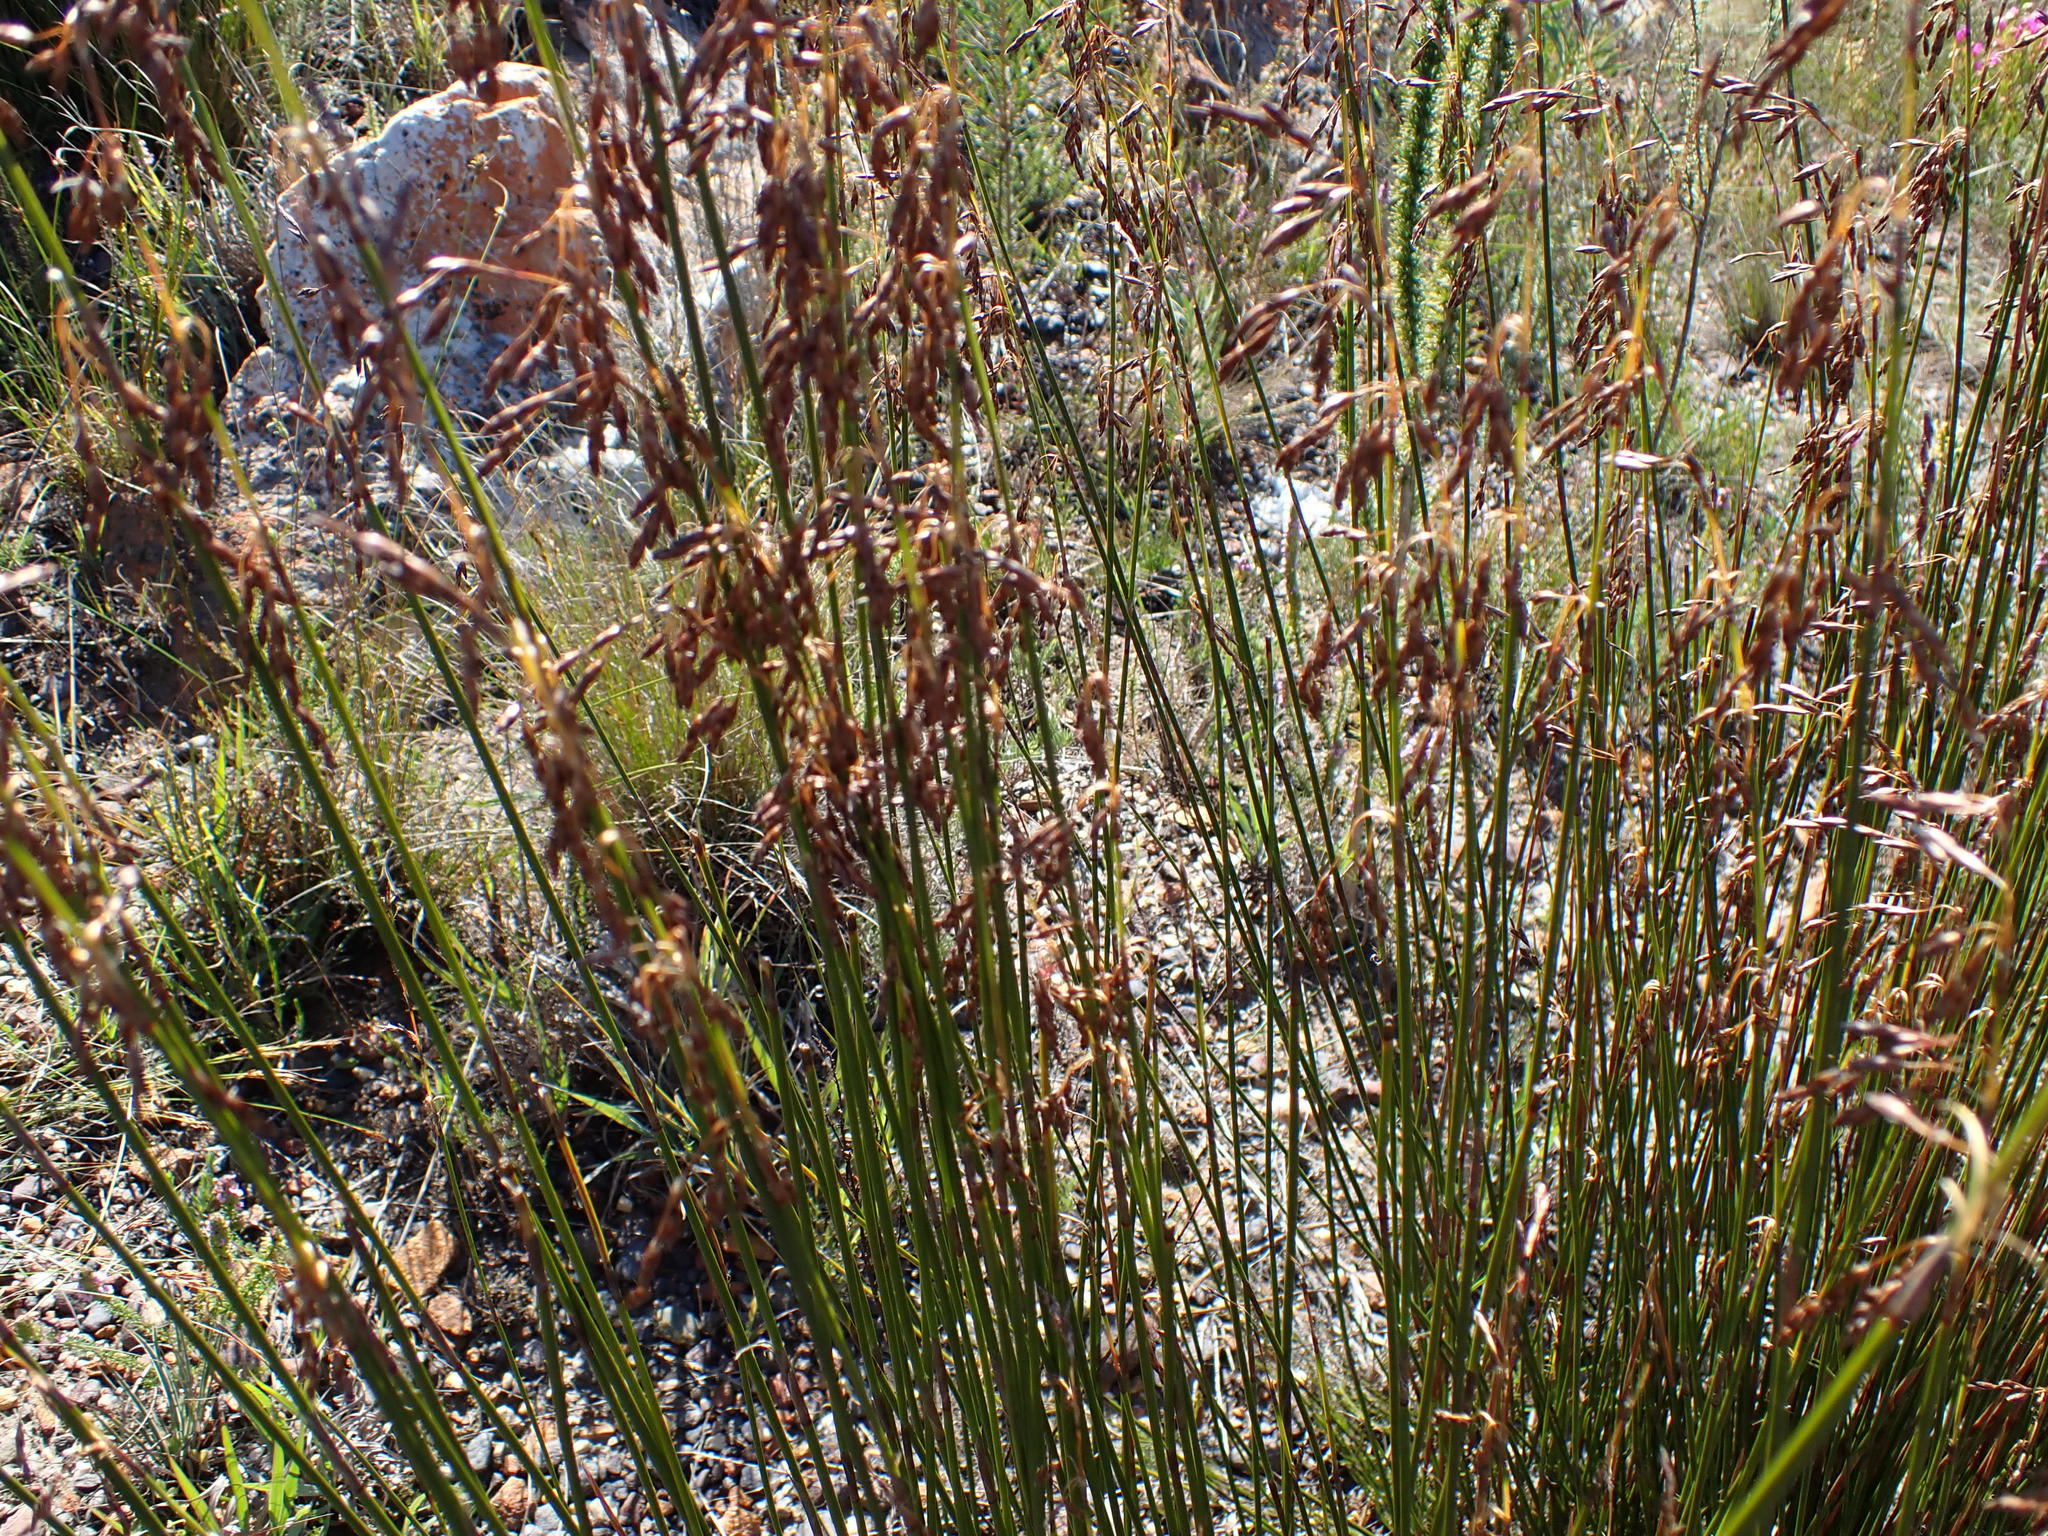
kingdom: Plantae
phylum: Tracheophyta
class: Liliopsida
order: Poales
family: Restionaceae
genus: Rhodocoma
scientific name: Rhodocoma fruticosa
